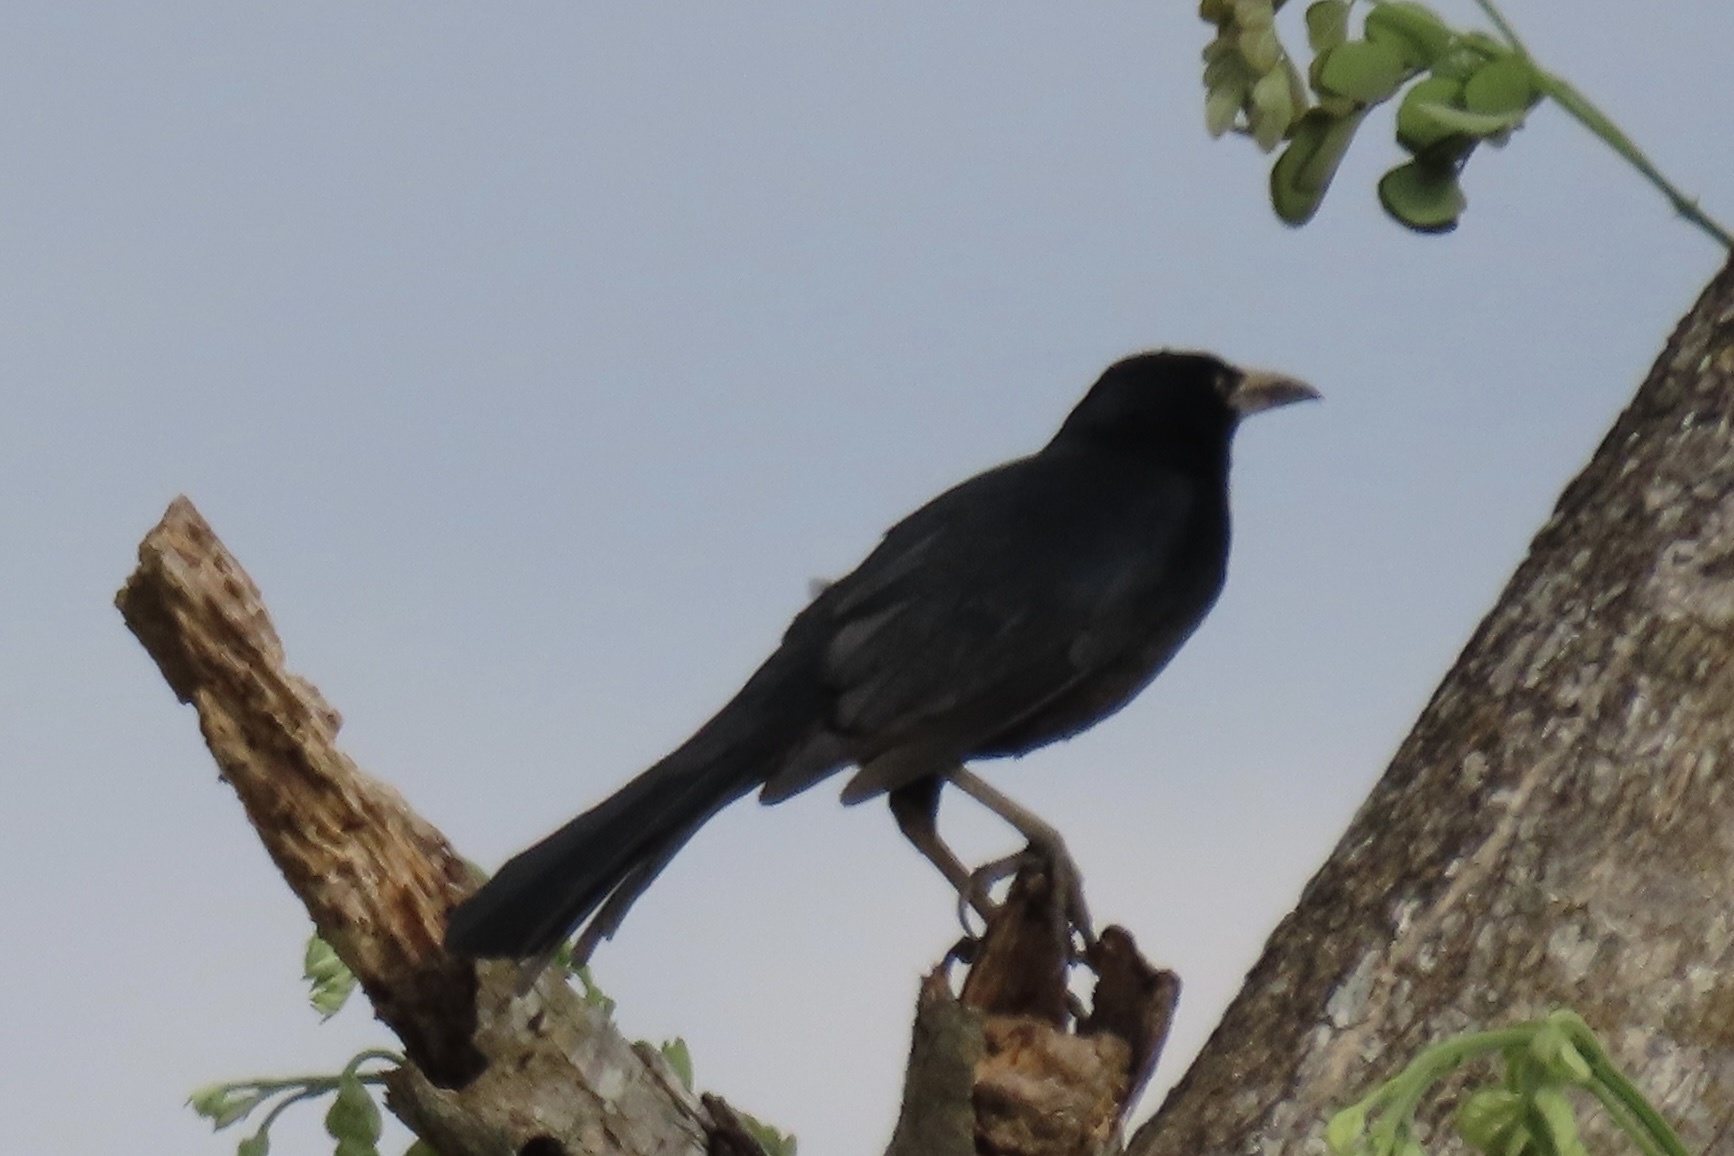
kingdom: Animalia
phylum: Chordata
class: Aves
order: Passeriformes
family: Icteridae
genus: Quiscalus
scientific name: Quiscalus mexicanus
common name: Great-tailed grackle
